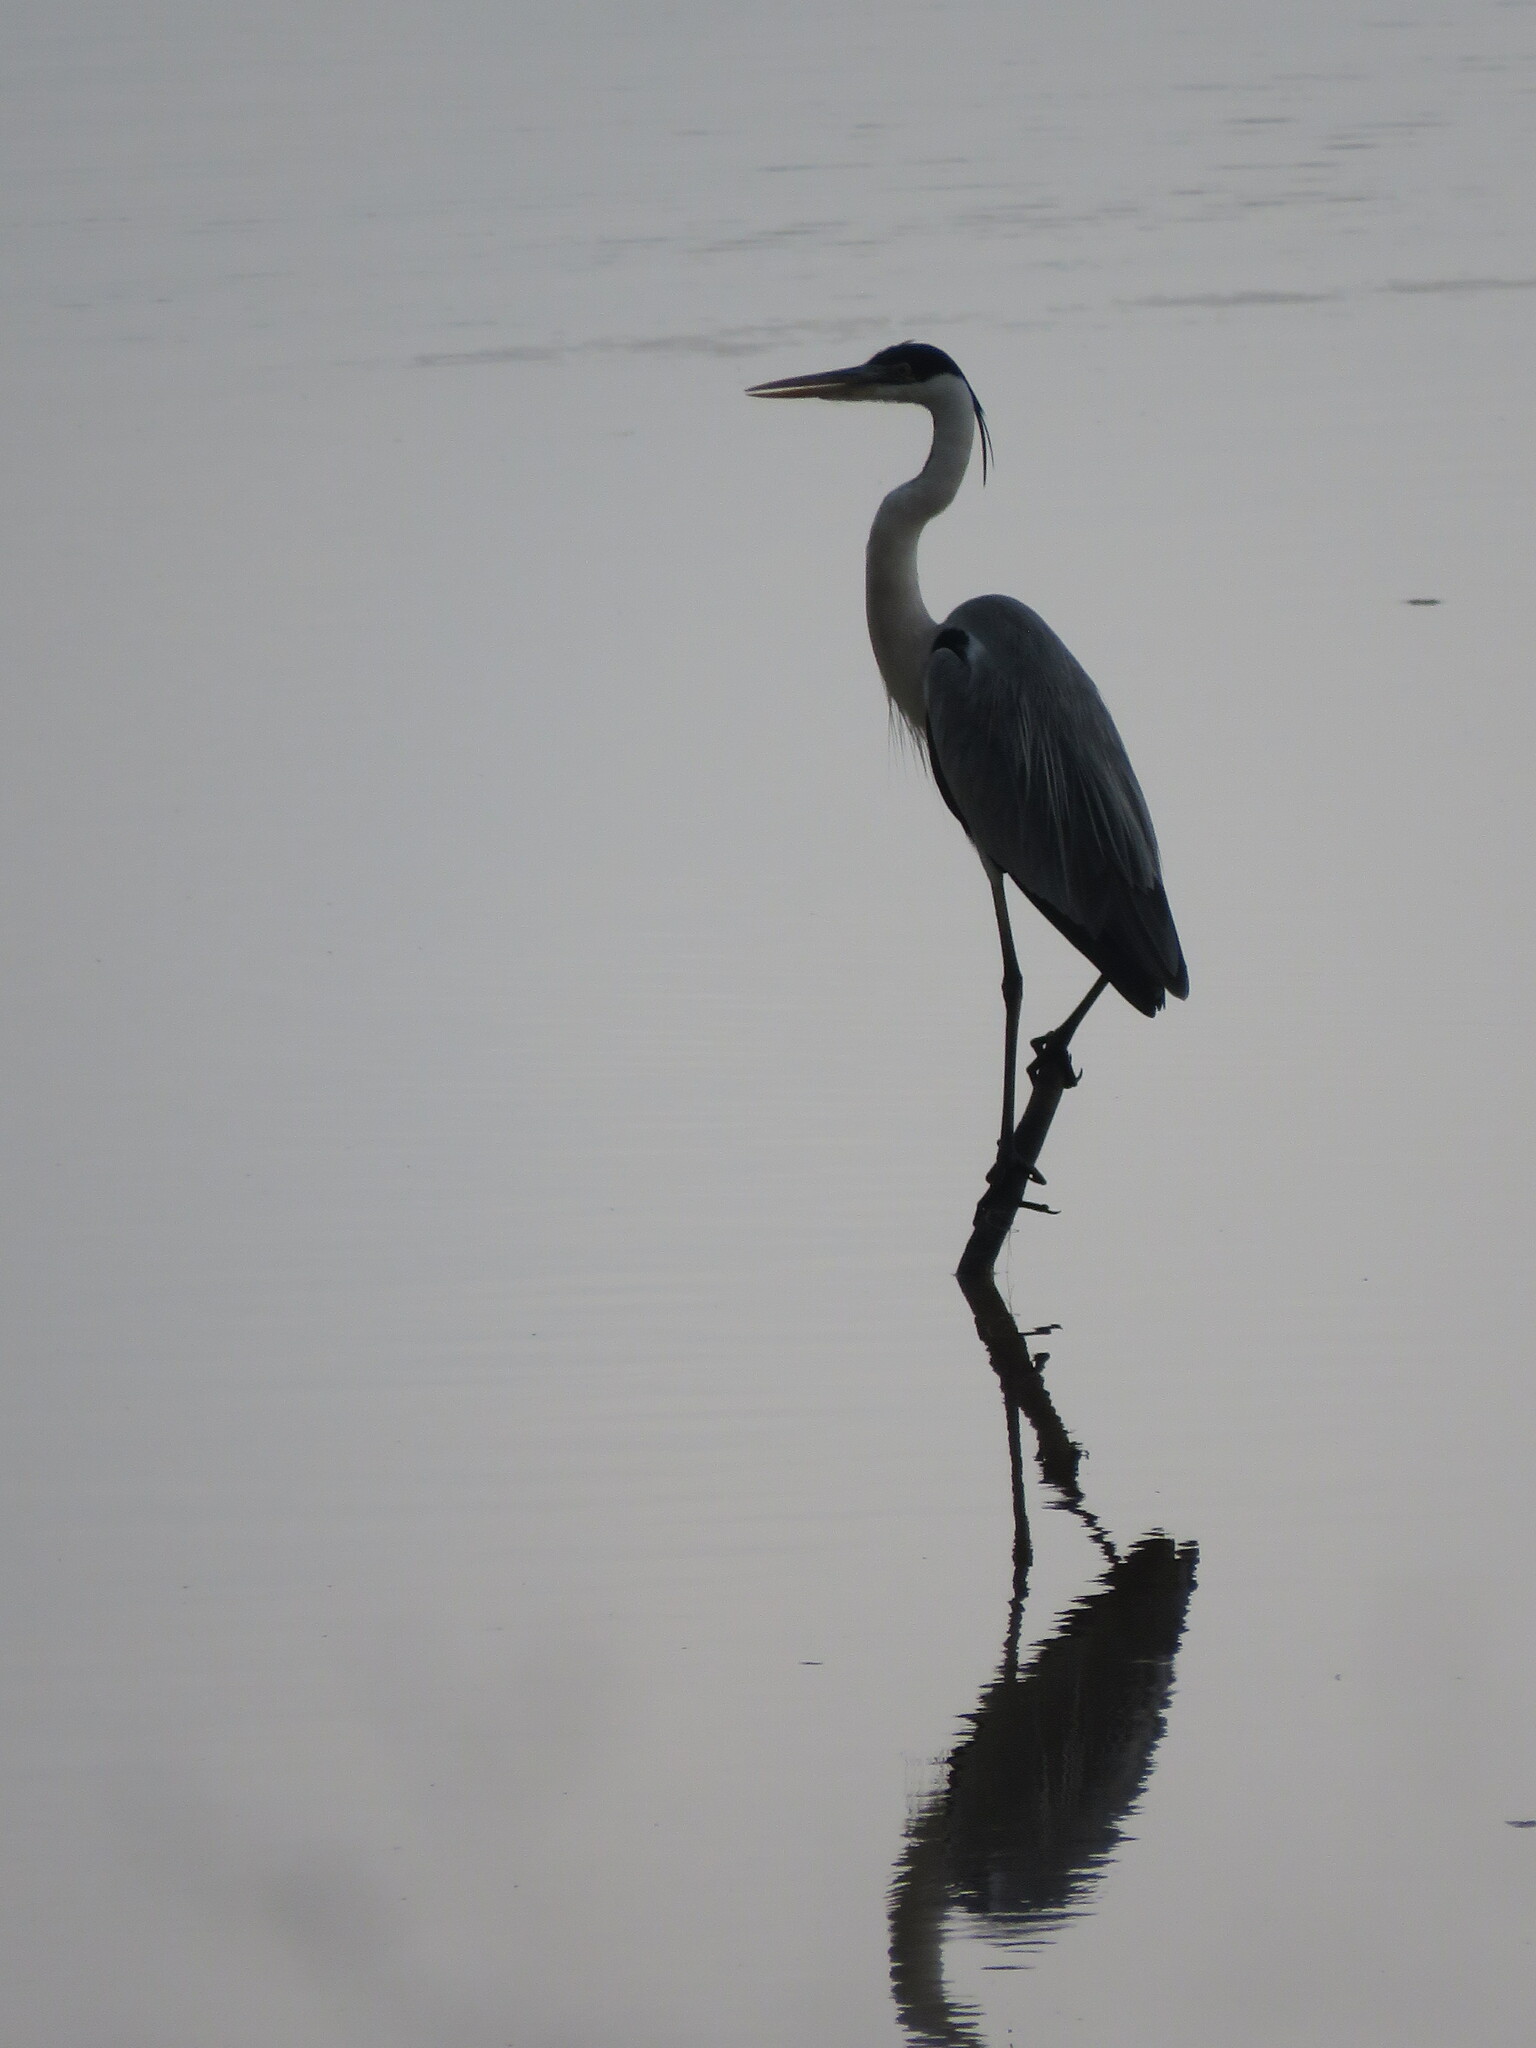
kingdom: Animalia
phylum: Chordata
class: Aves
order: Pelecaniformes
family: Ardeidae
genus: Ardea
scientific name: Ardea cocoi
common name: Cocoi heron
